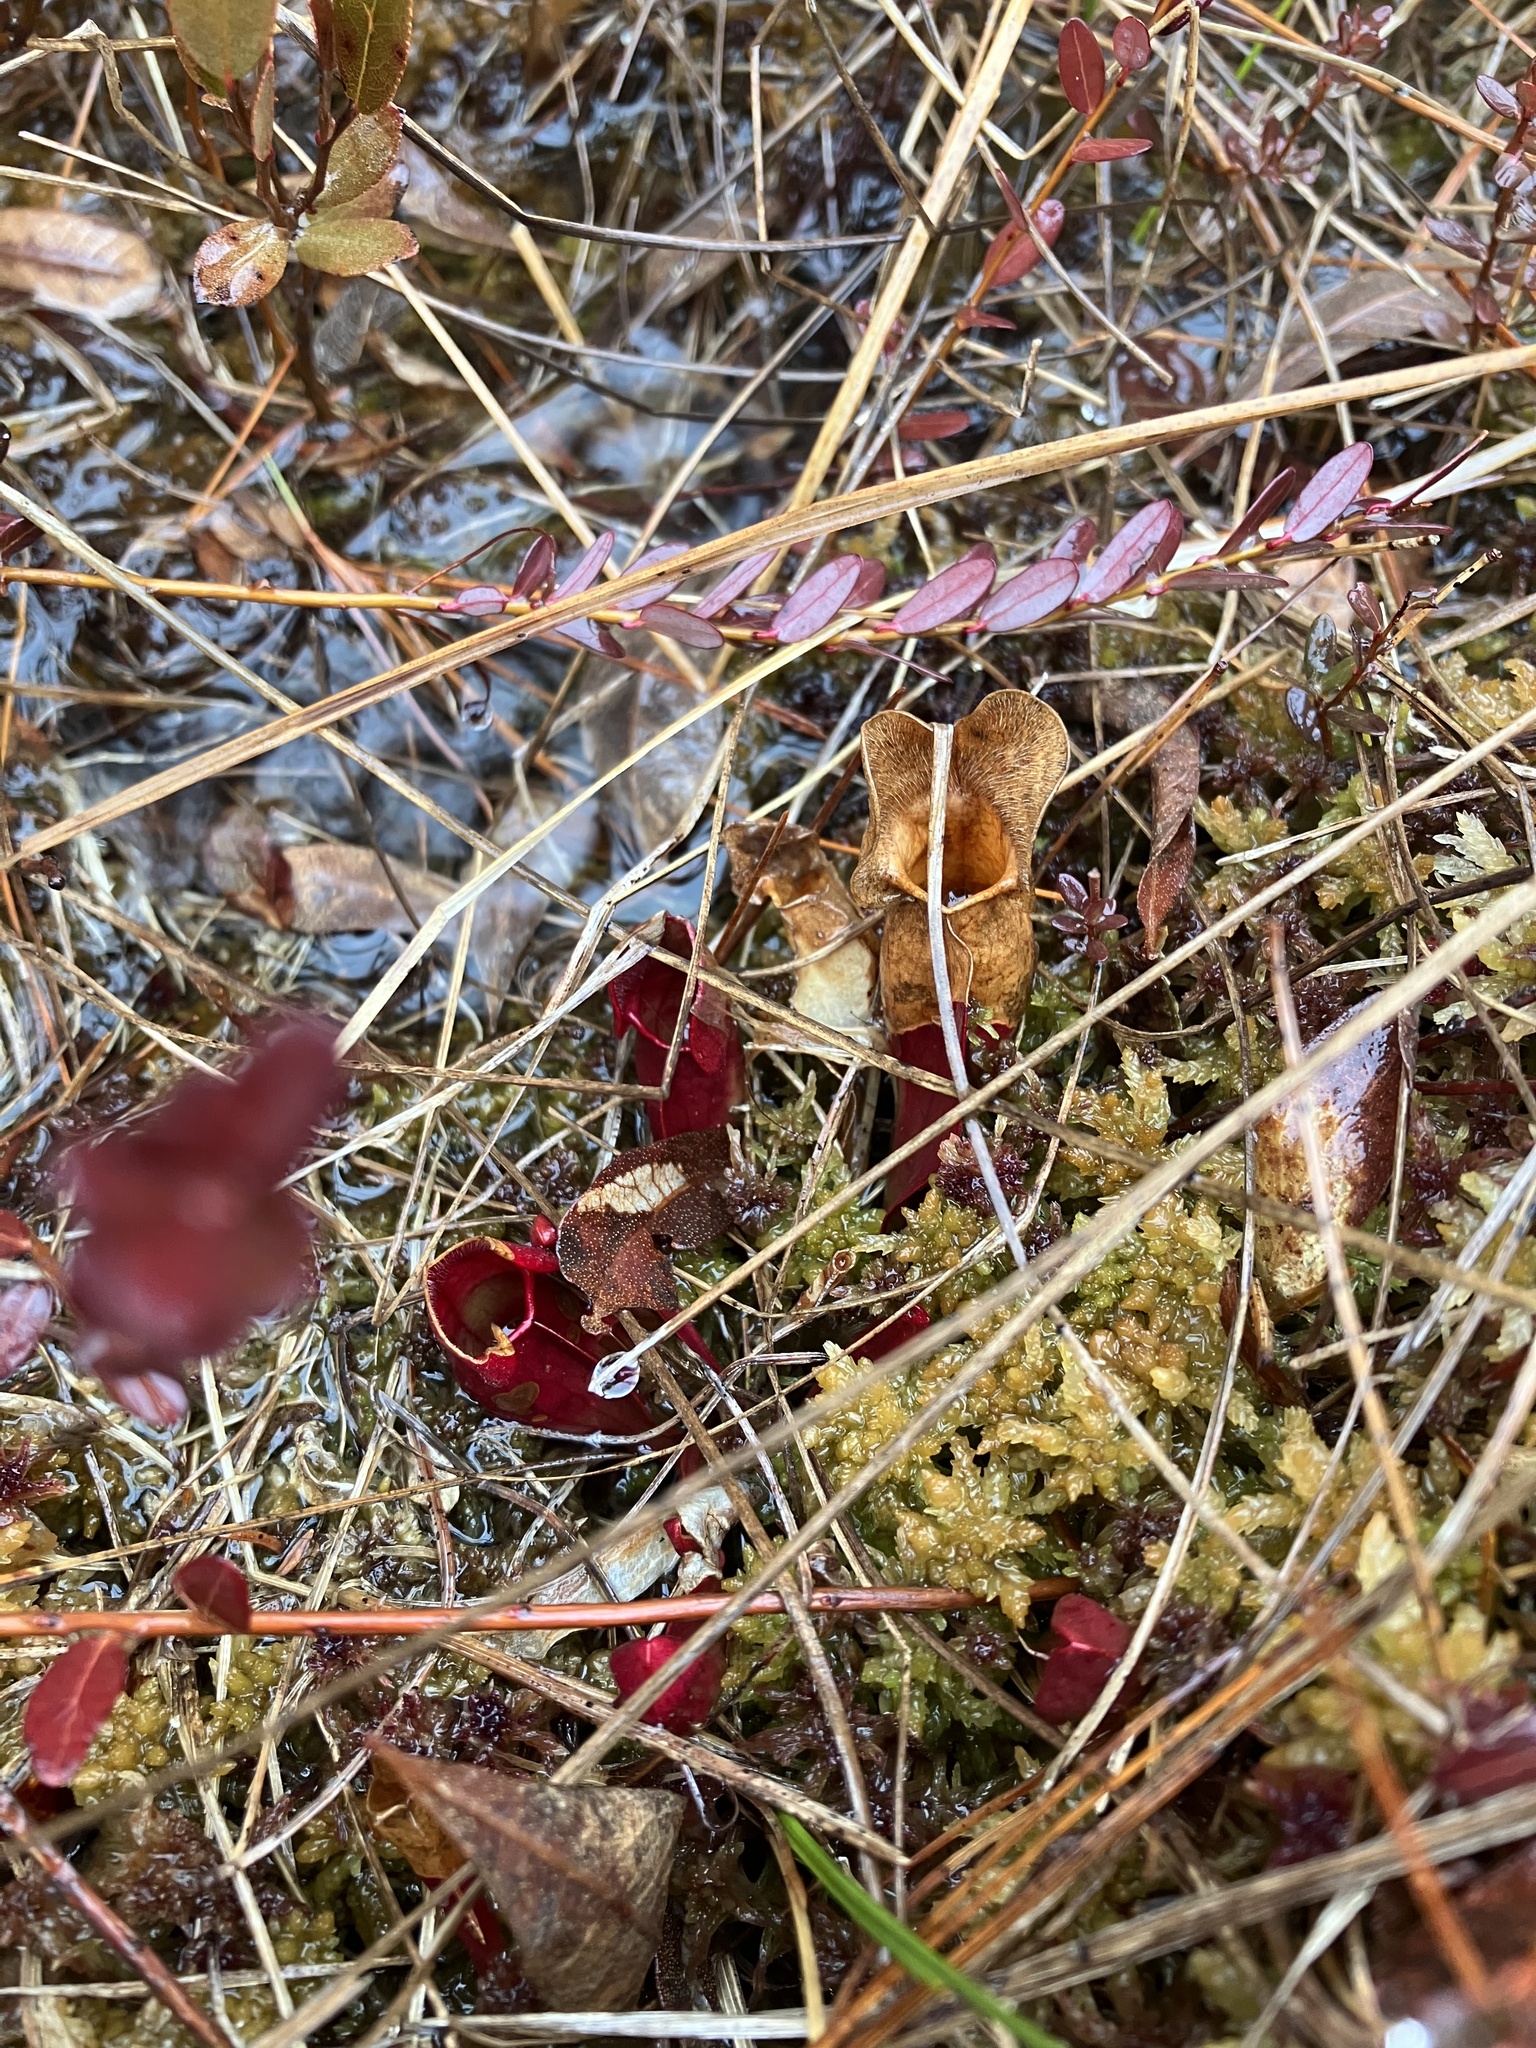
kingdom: Plantae
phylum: Tracheophyta
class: Magnoliopsida
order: Ericales
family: Sarraceniaceae
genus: Sarracenia
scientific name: Sarracenia purpurea
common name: Pitcherplant
